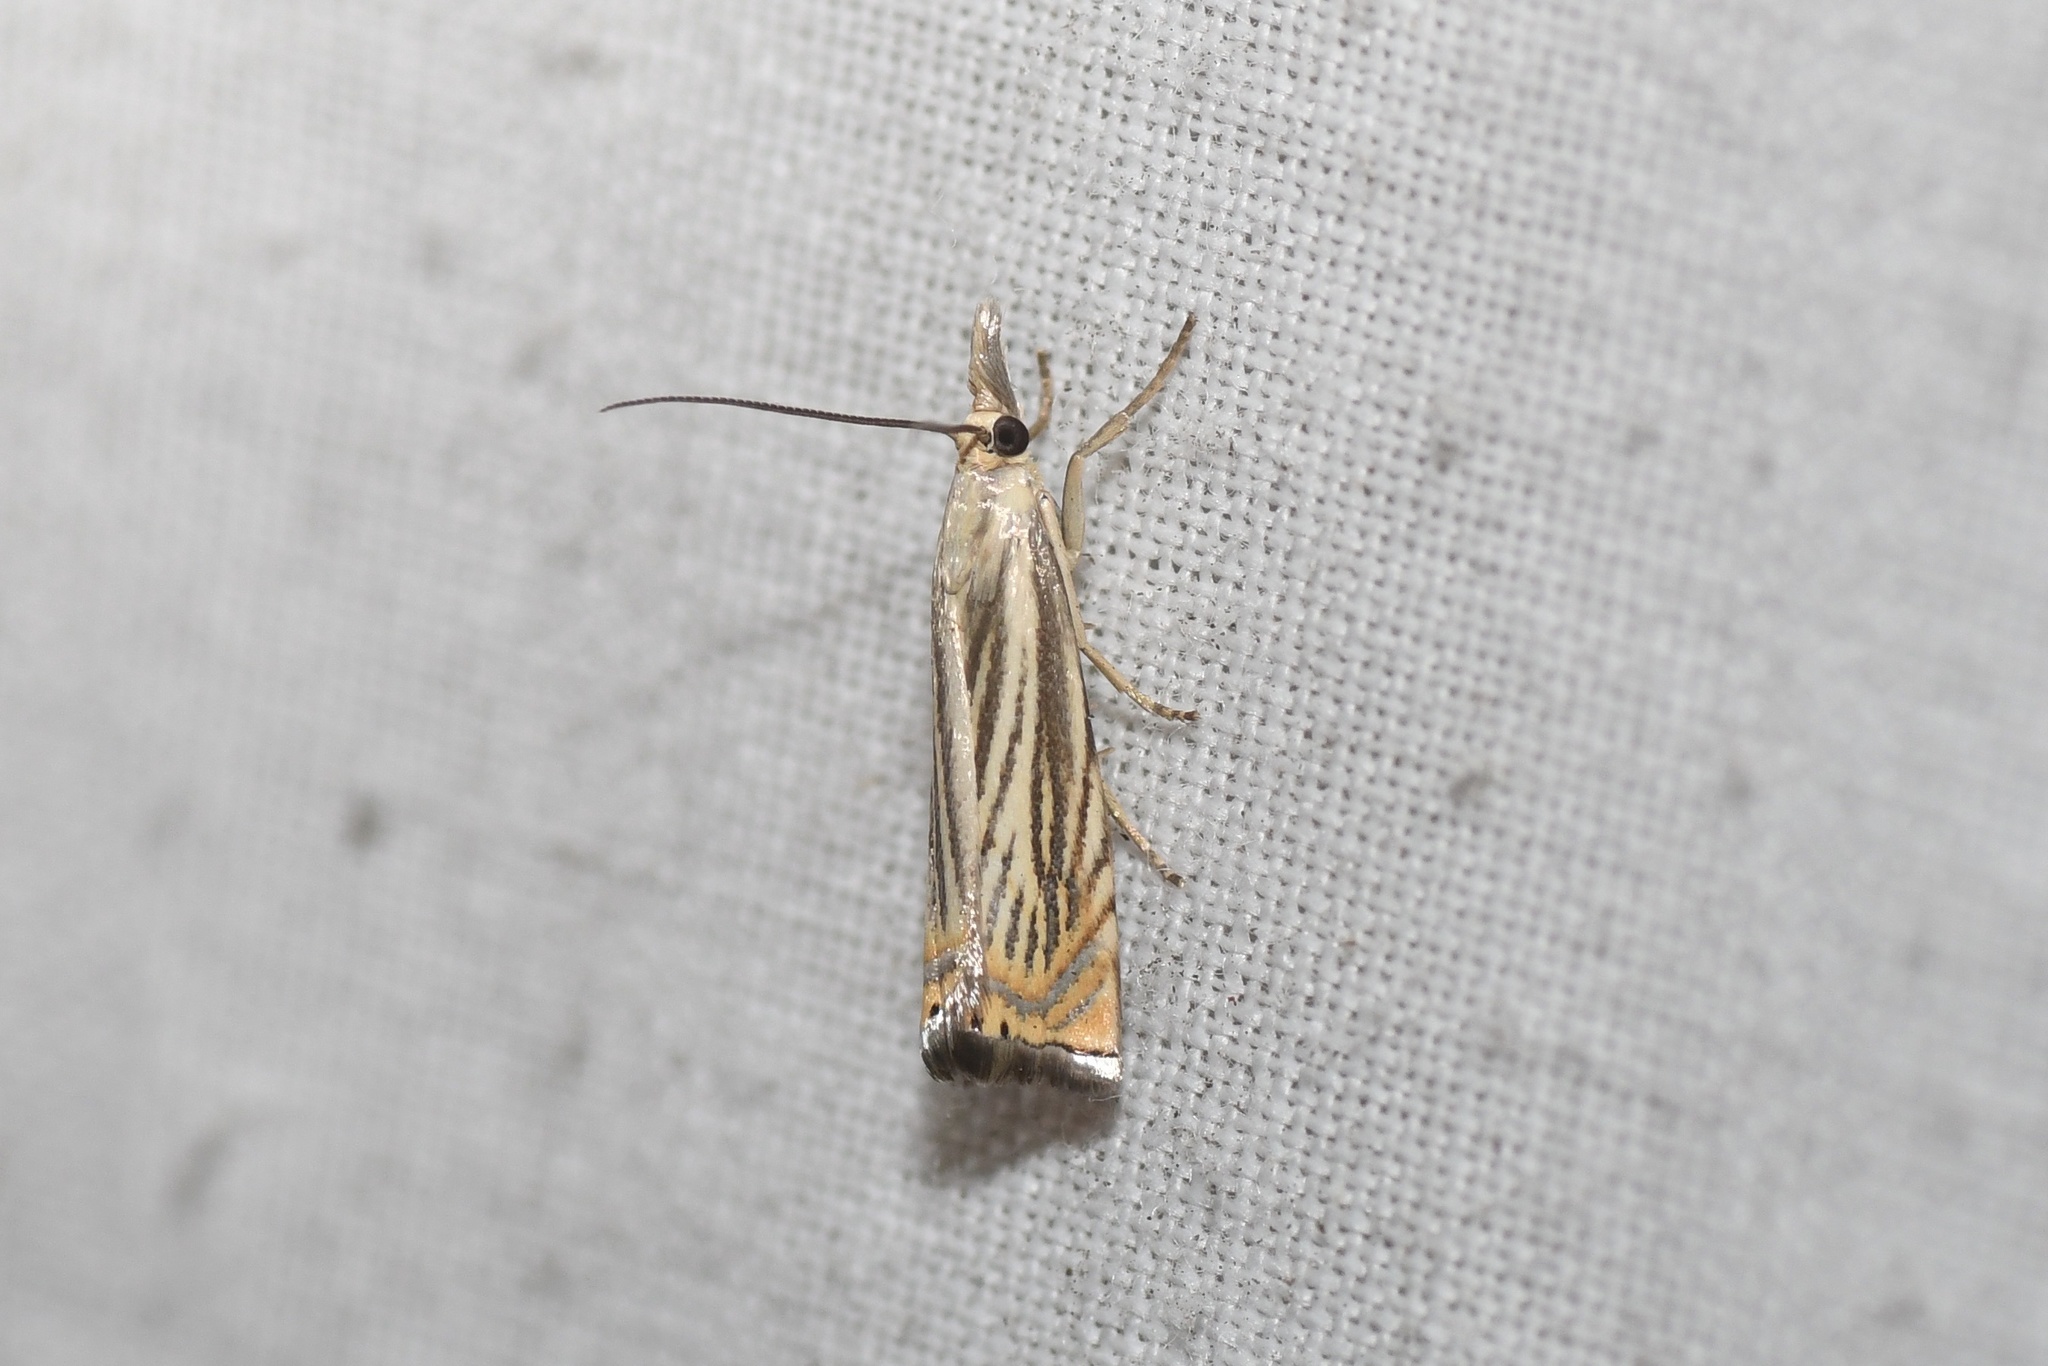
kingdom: Animalia
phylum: Arthropoda
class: Insecta
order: Lepidoptera
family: Crambidae
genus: Chrysoteuchia
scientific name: Chrysoteuchia topiarius
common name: Topiary grass-veneer
